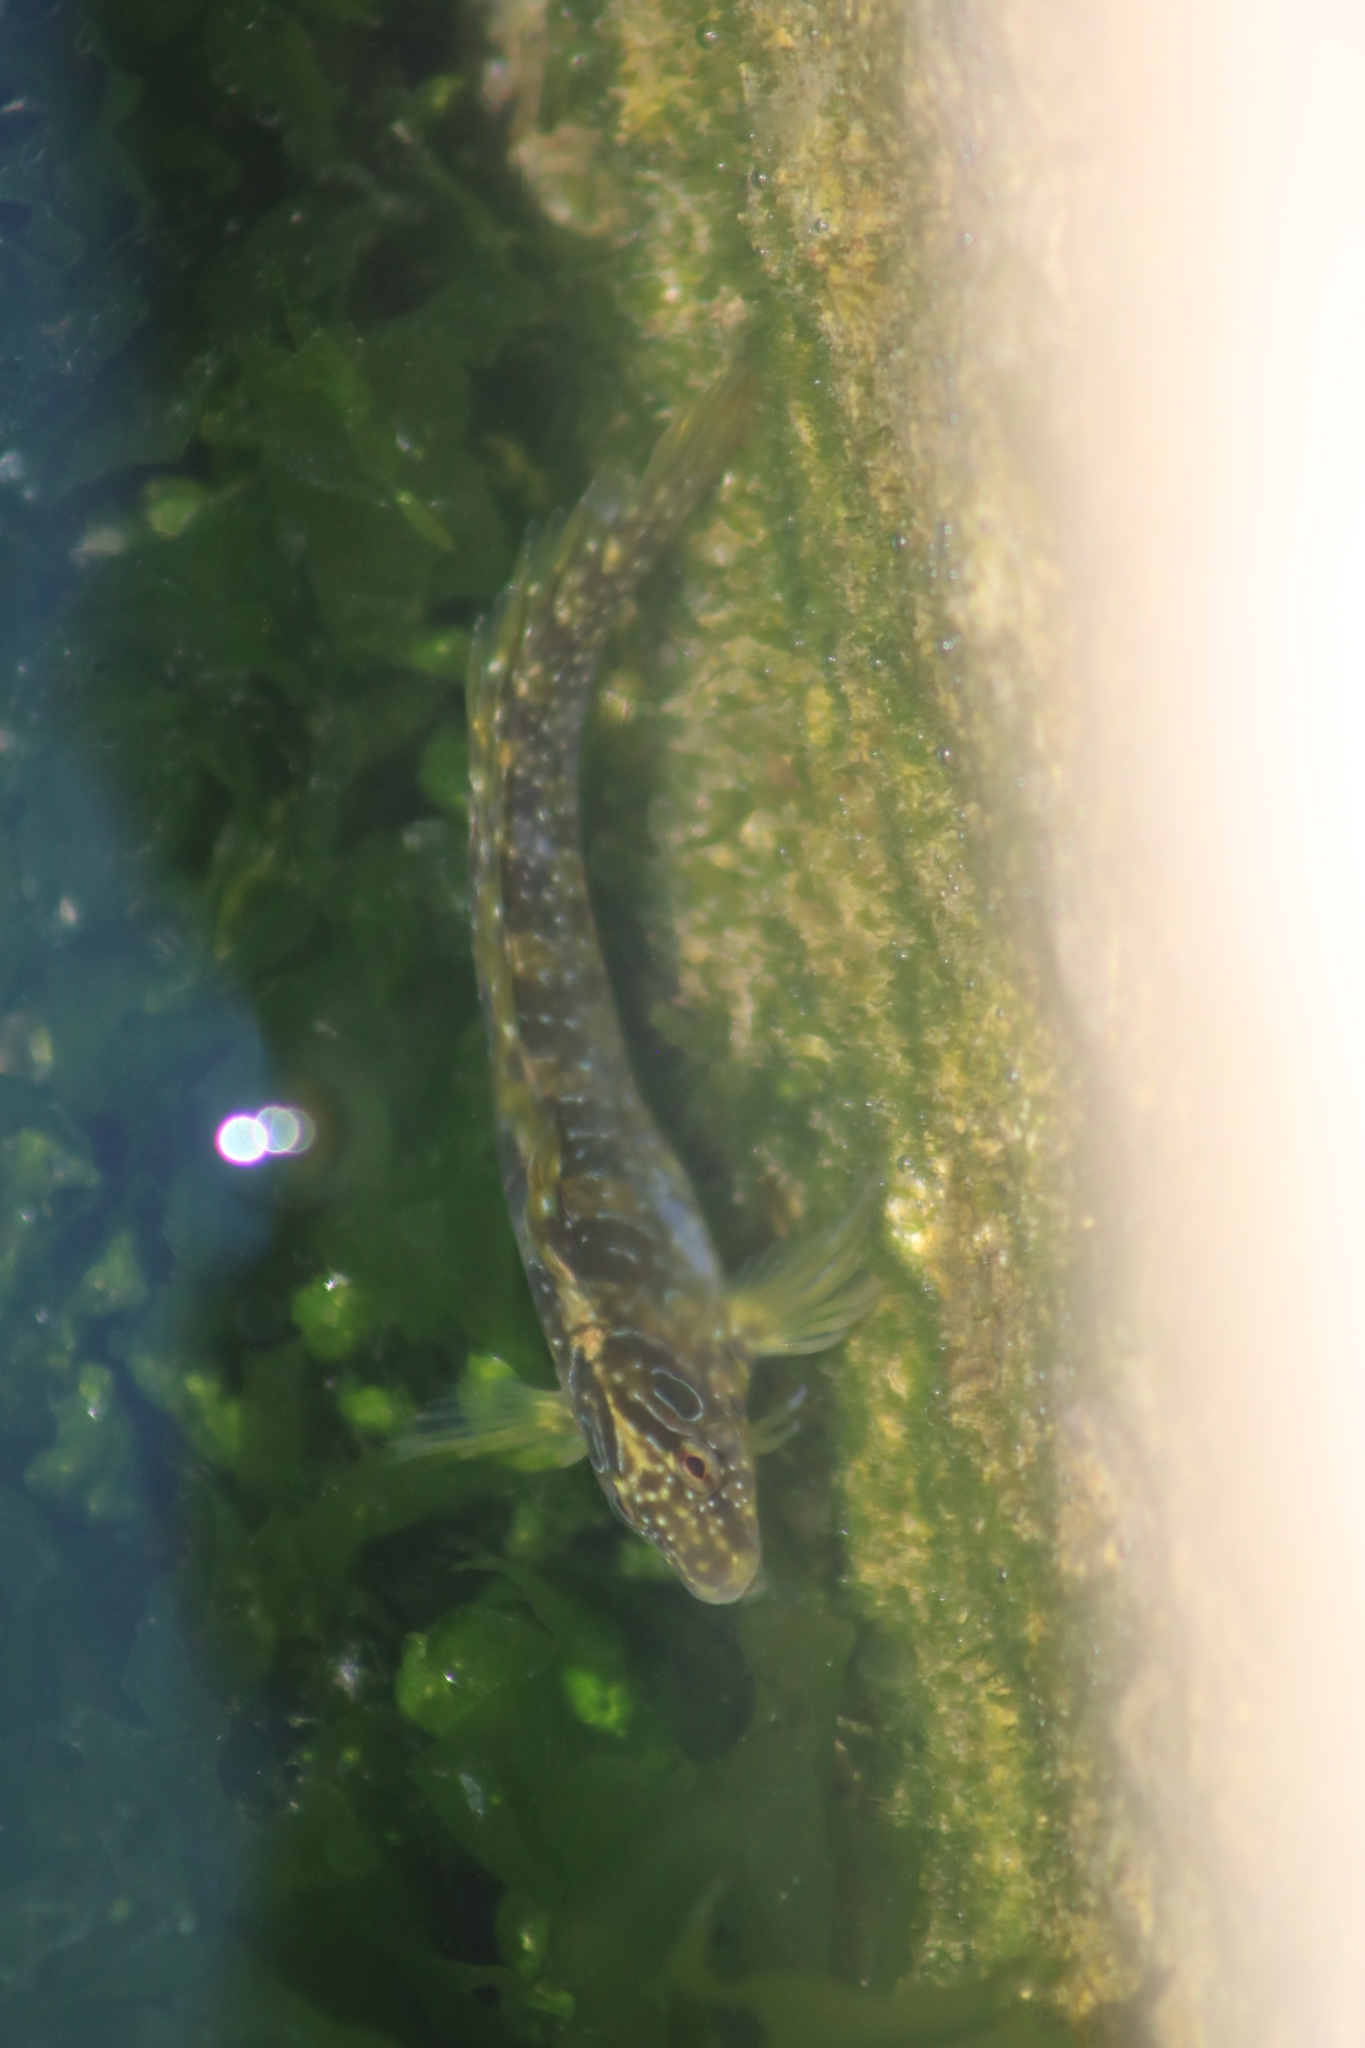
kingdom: Animalia
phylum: Chordata
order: Perciformes
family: Blenniidae
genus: Salaria
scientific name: Salaria pavo
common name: Peacock blenny
